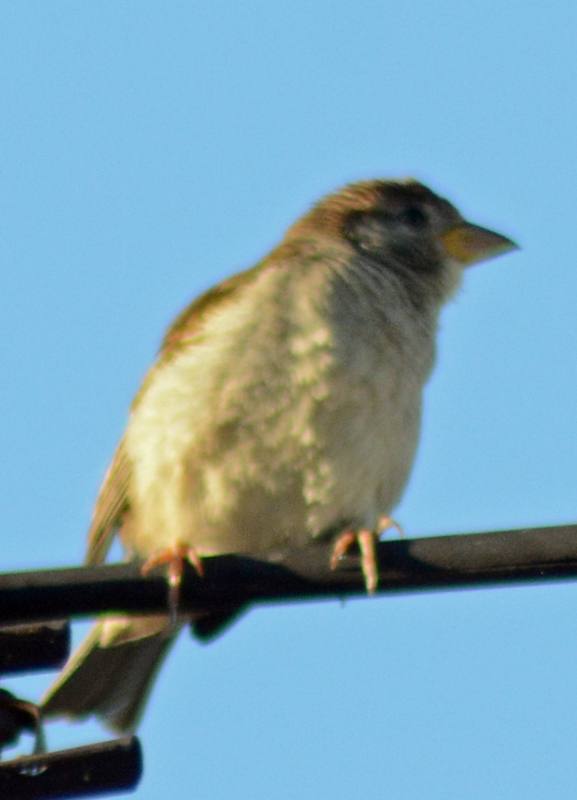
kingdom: Animalia
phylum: Chordata
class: Aves
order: Passeriformes
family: Passeridae
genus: Passer
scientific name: Passer domesticus
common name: House sparrow
